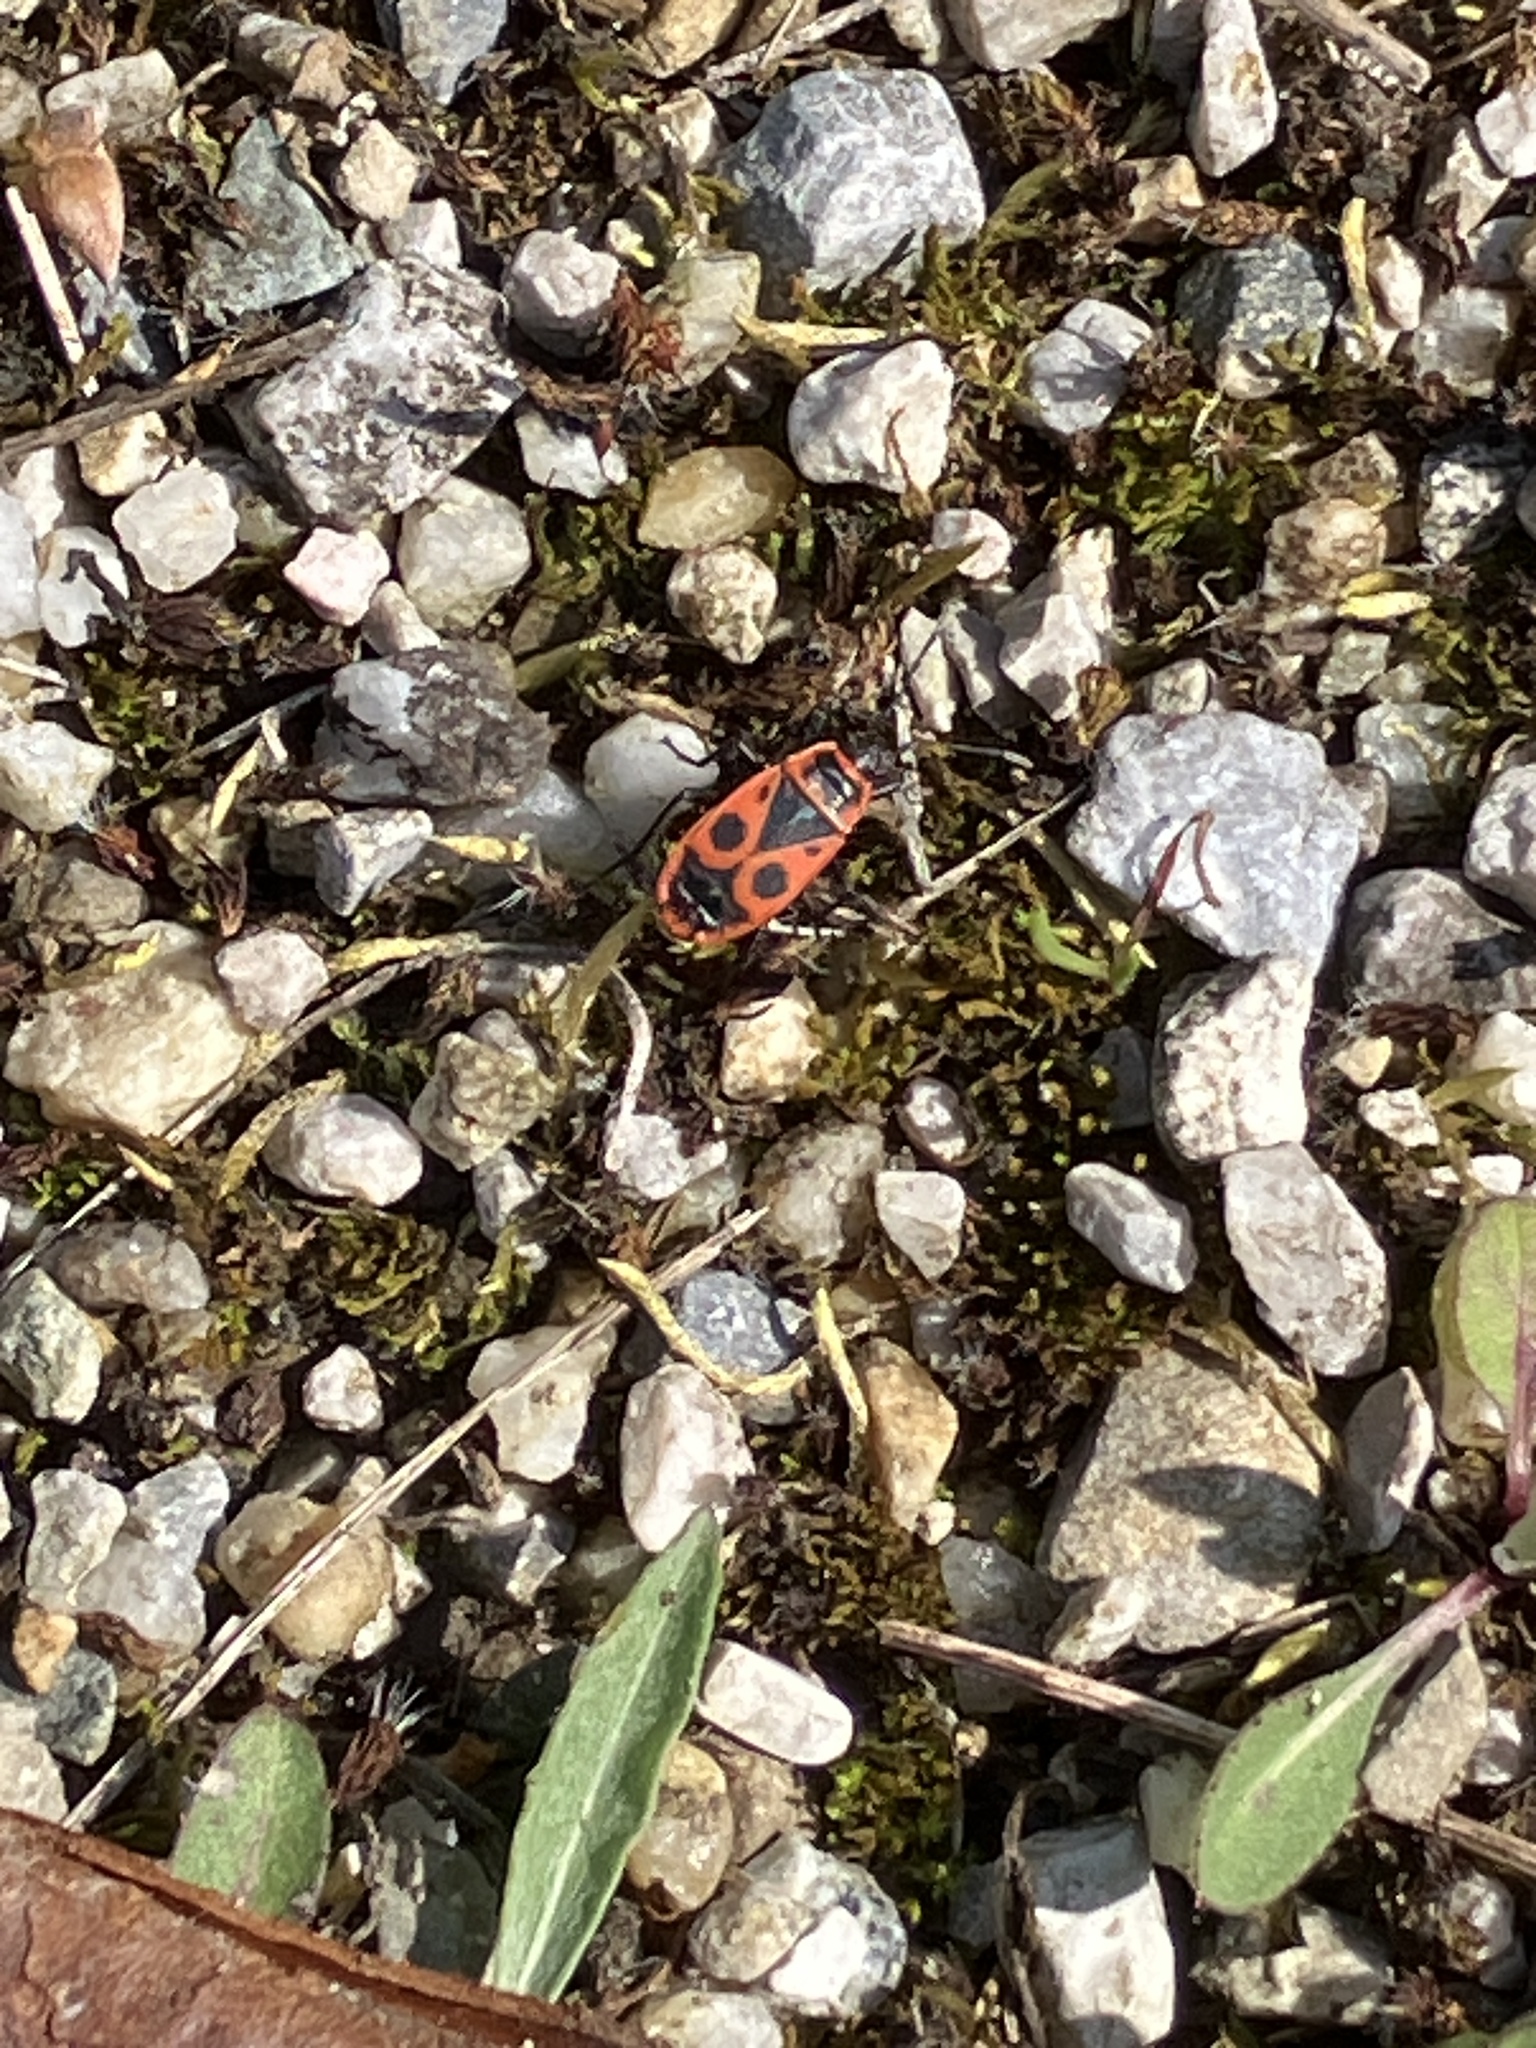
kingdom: Animalia
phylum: Arthropoda
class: Insecta
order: Hemiptera
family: Pyrrhocoridae
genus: Pyrrhocoris
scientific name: Pyrrhocoris apterus
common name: Firebug
